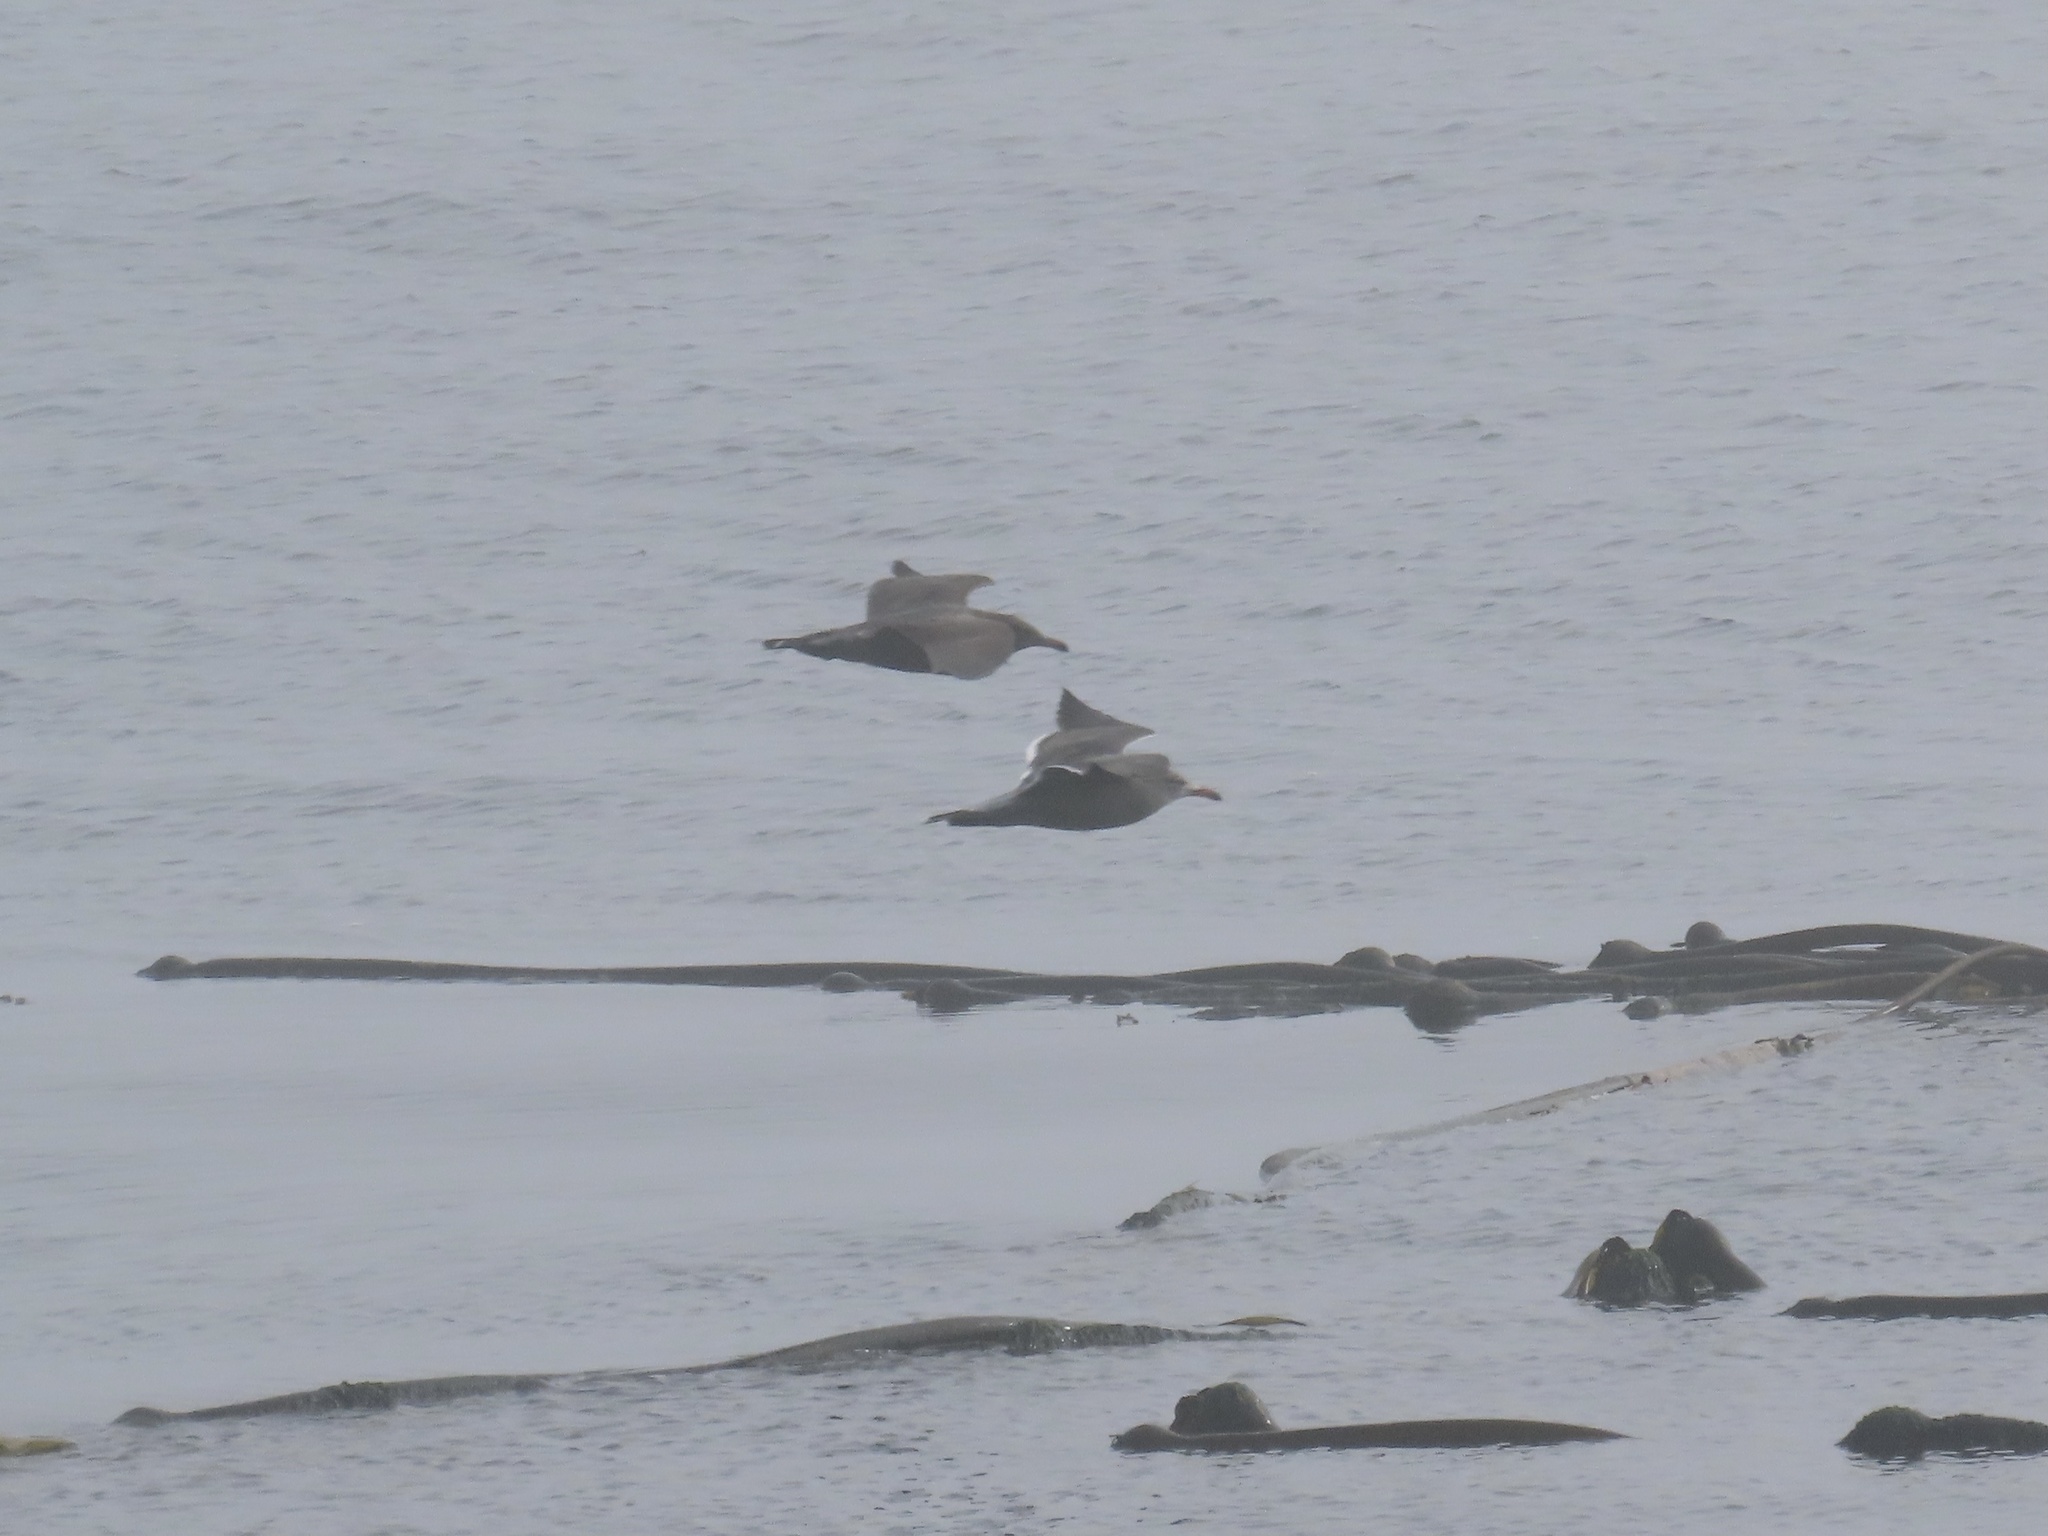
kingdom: Animalia
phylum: Chordata
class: Aves
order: Charadriiformes
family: Laridae
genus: Larus
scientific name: Larus heermanni
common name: Heermann's gull
